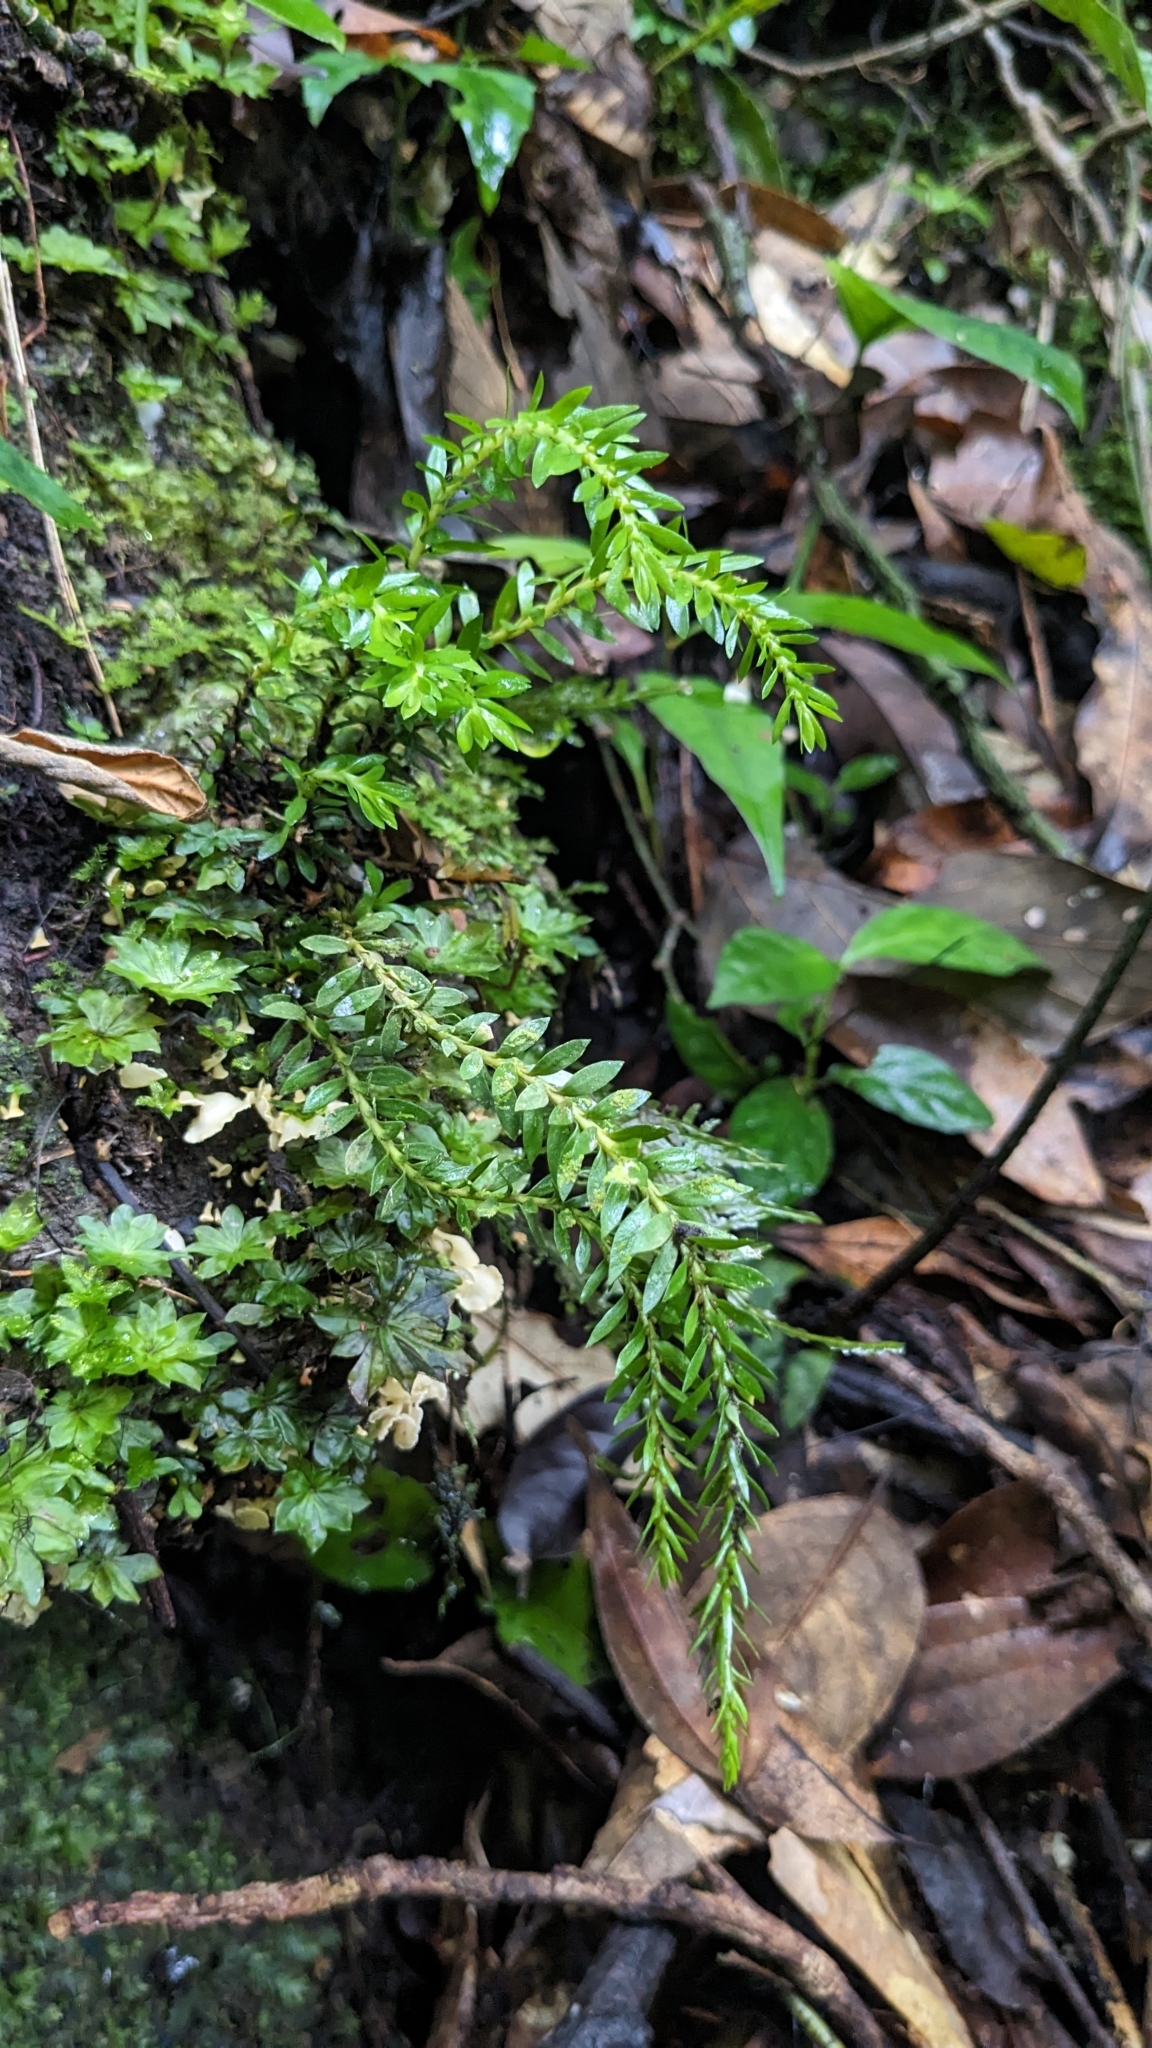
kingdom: Plantae
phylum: Tracheophyta
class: Lycopodiopsida
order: Lycopodiales
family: Lycopodiaceae
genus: Phlegmariurus
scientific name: Phlegmariurus fordii
